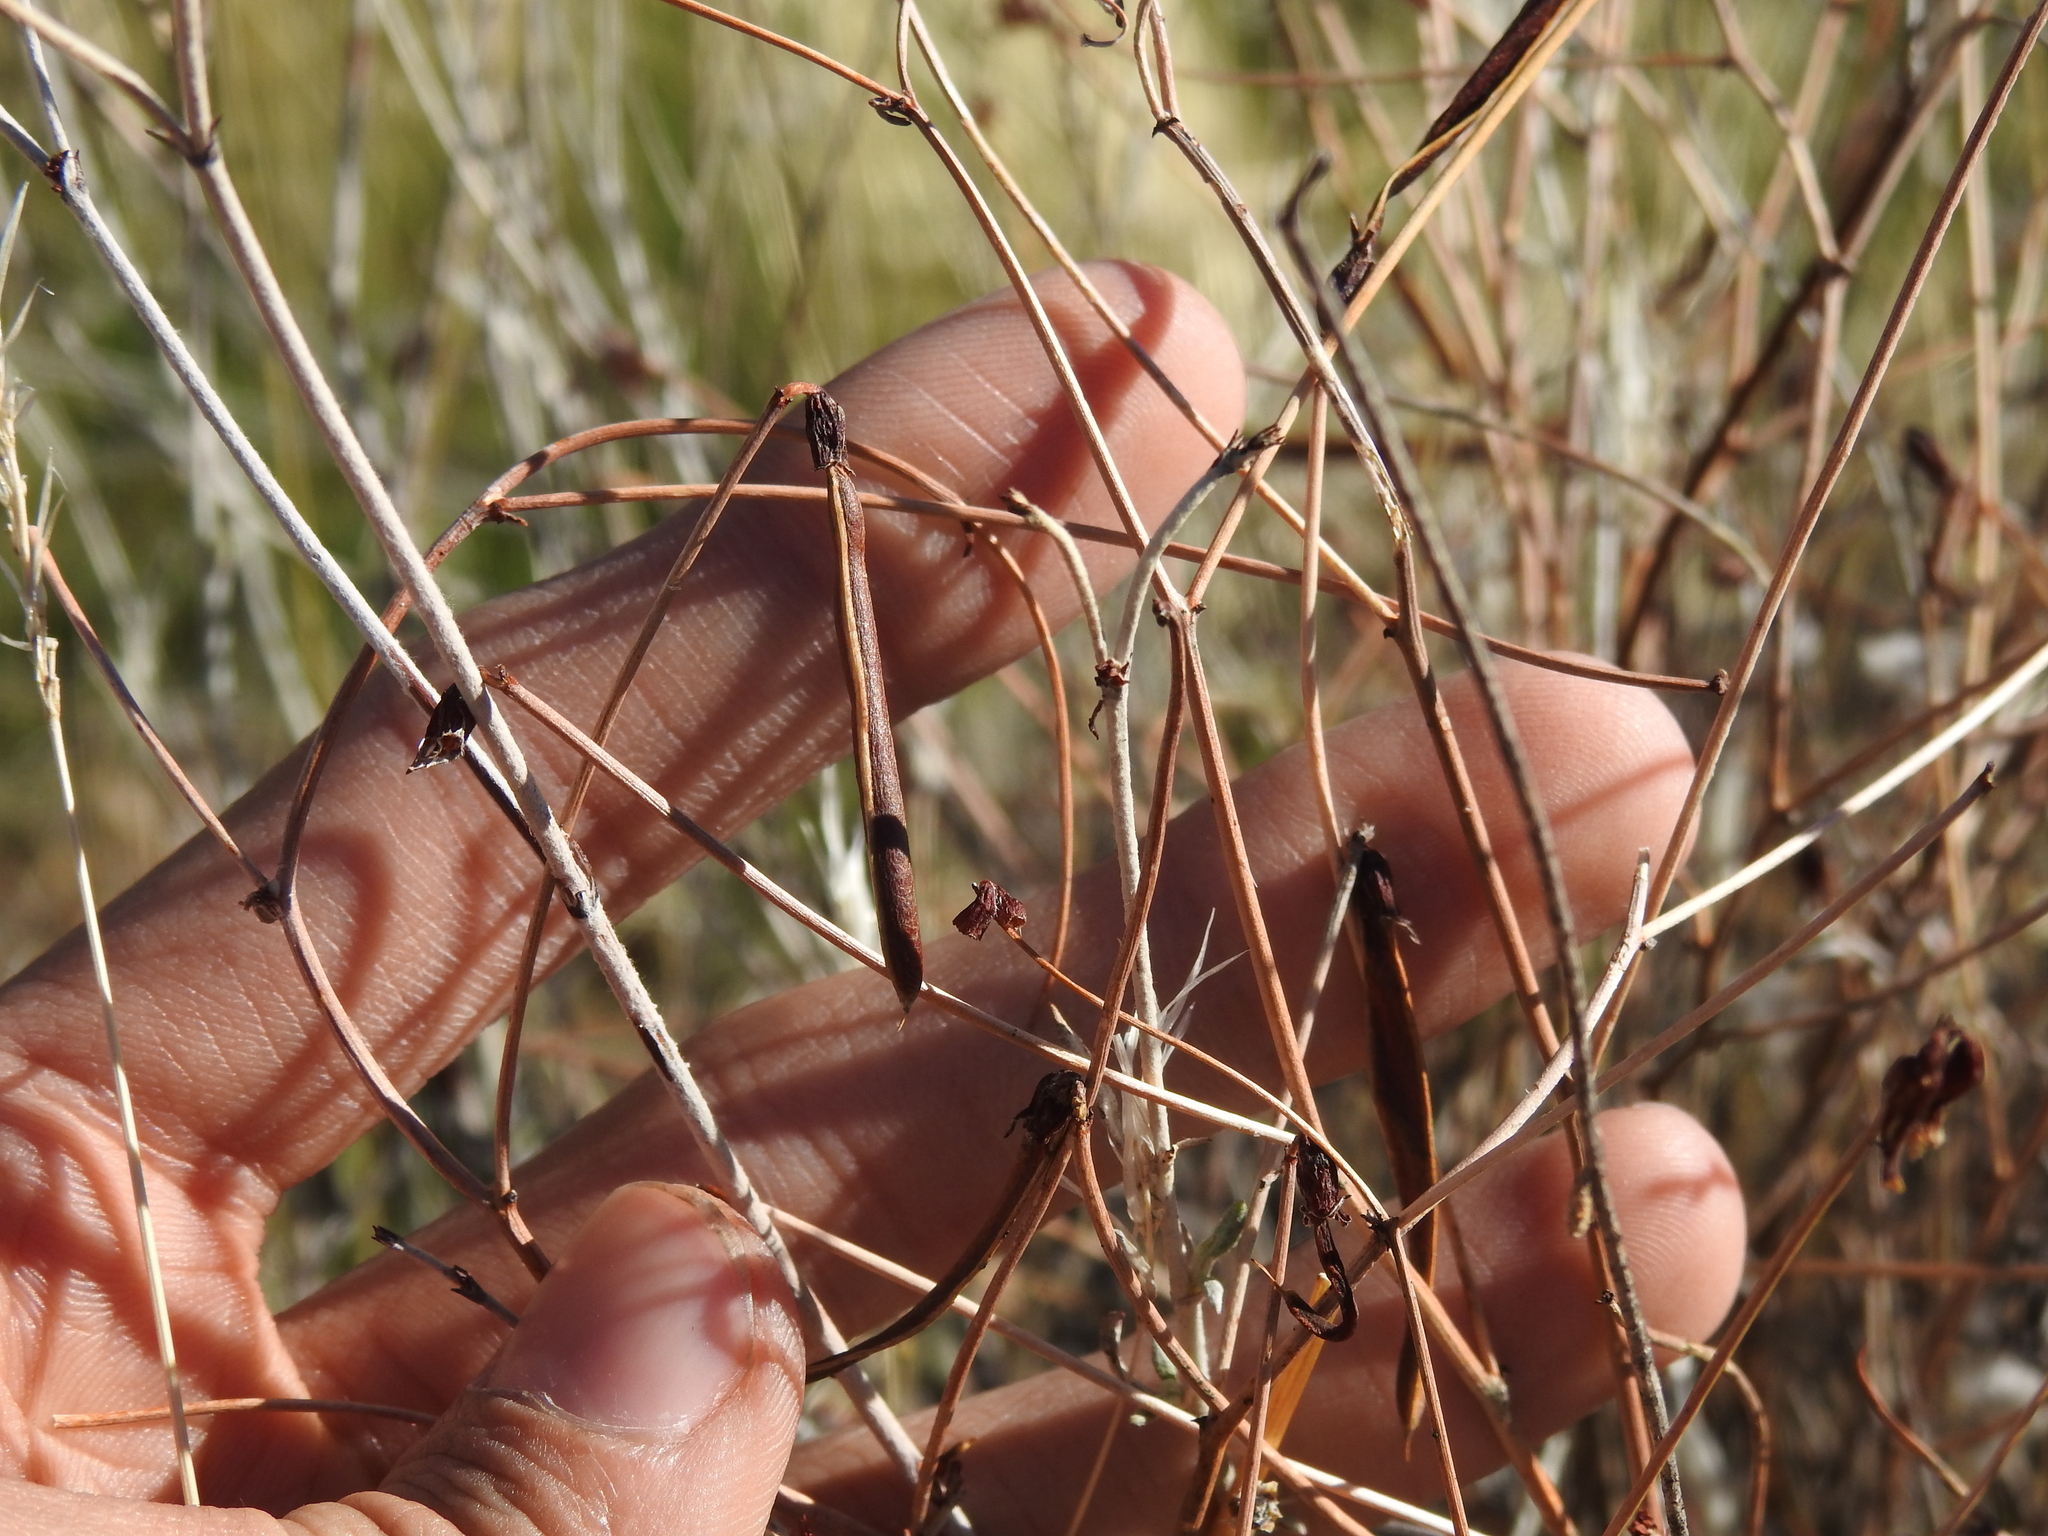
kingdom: Plantae
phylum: Tracheophyta
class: Magnoliopsida
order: Fabales
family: Fabaceae
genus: Acmispon
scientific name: Acmispon rigidus
